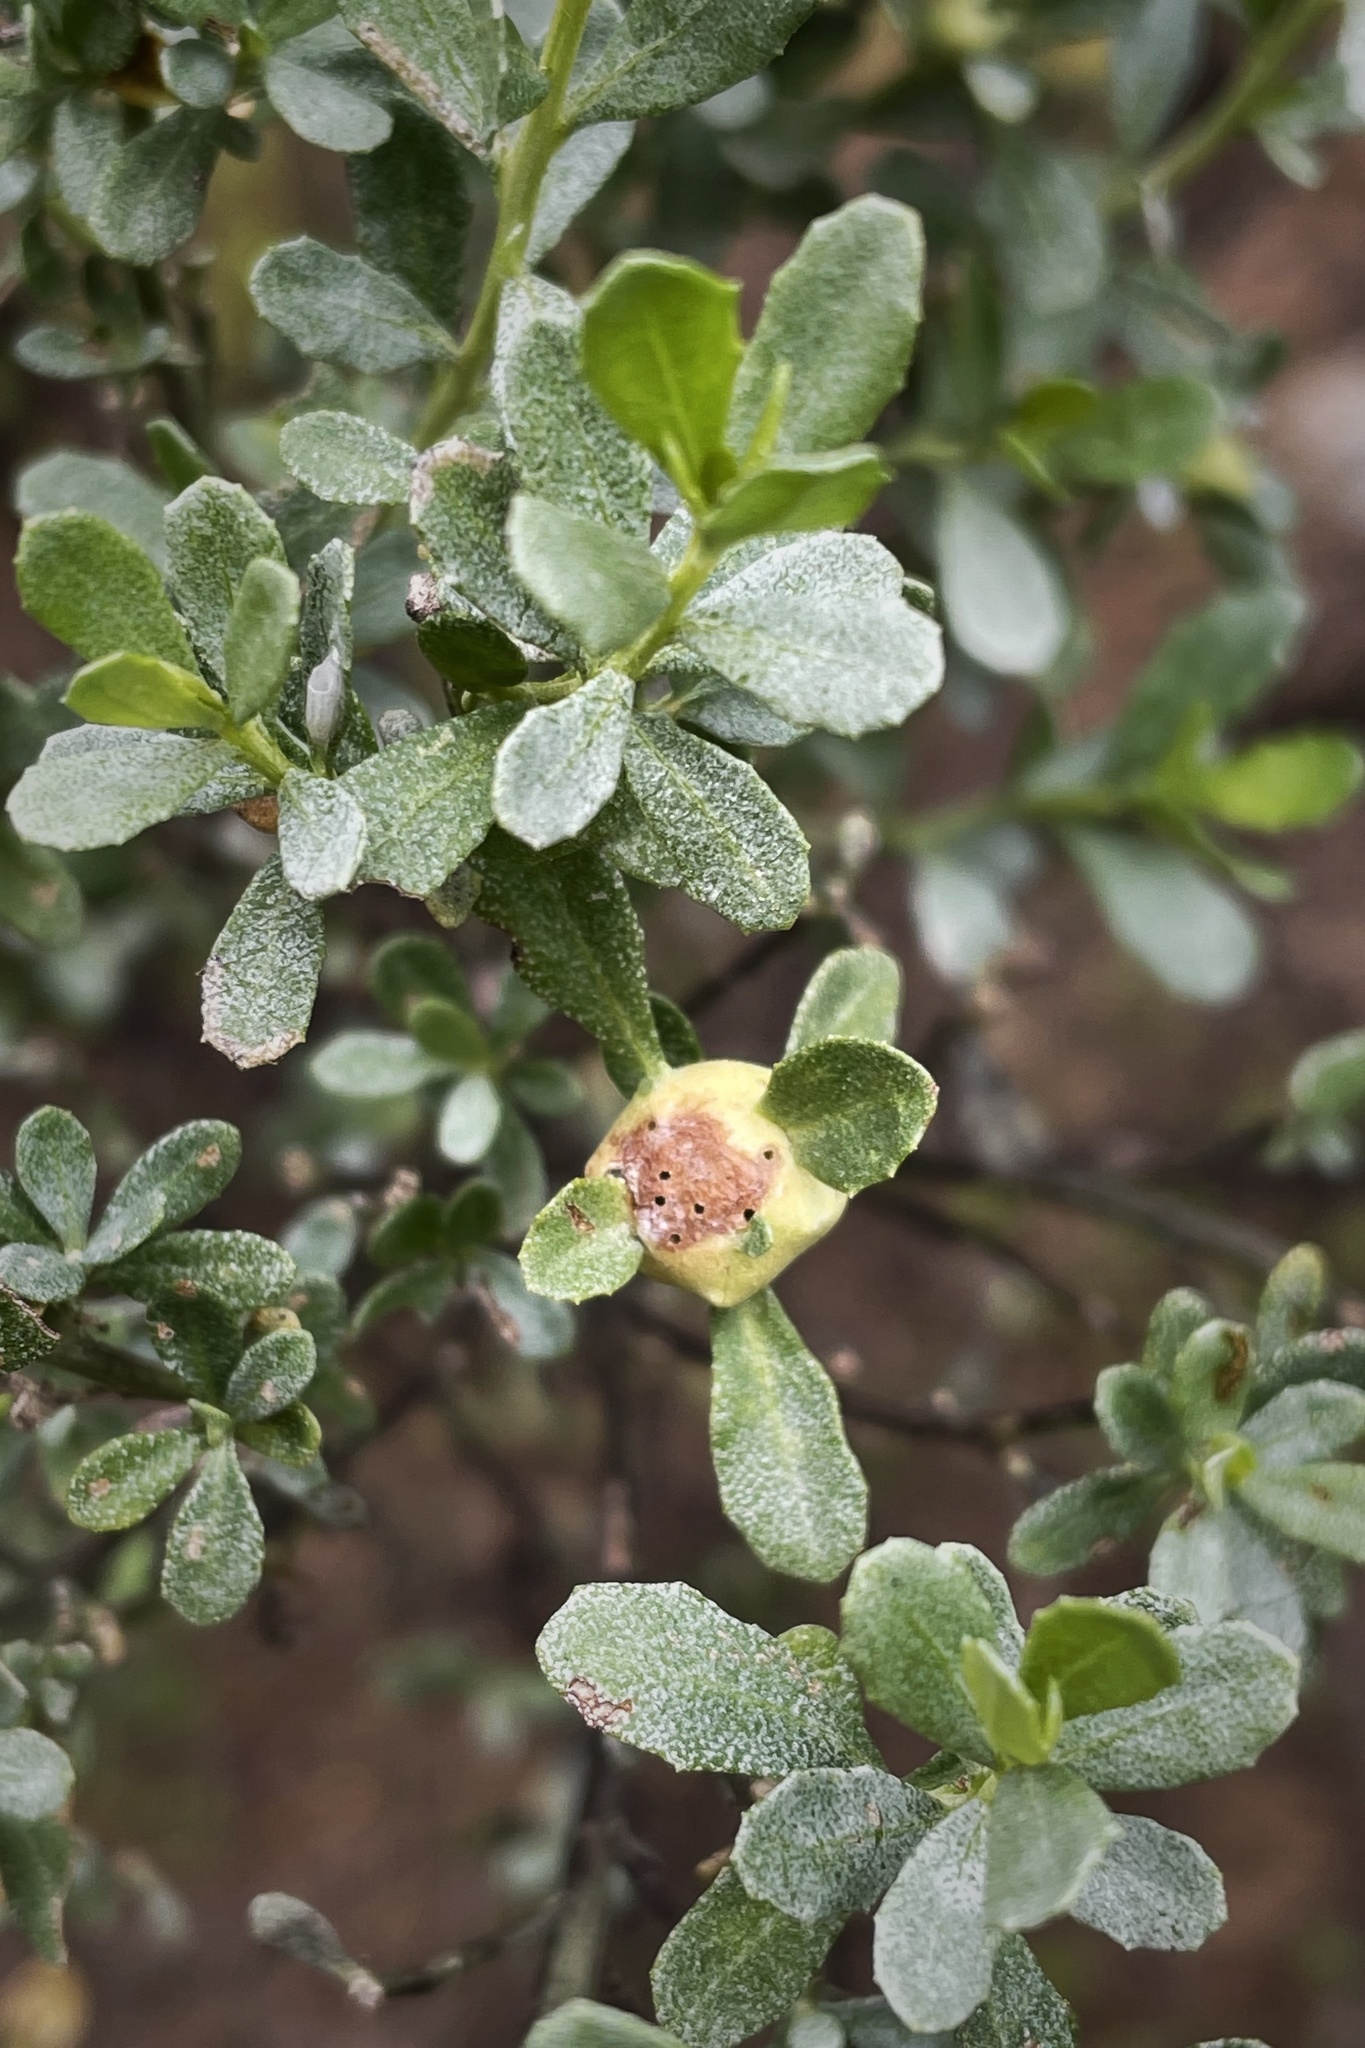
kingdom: Animalia
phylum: Arthropoda
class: Insecta
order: Diptera
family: Cecidomyiidae
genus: Rhopalomyia
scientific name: Rhopalomyia californica
